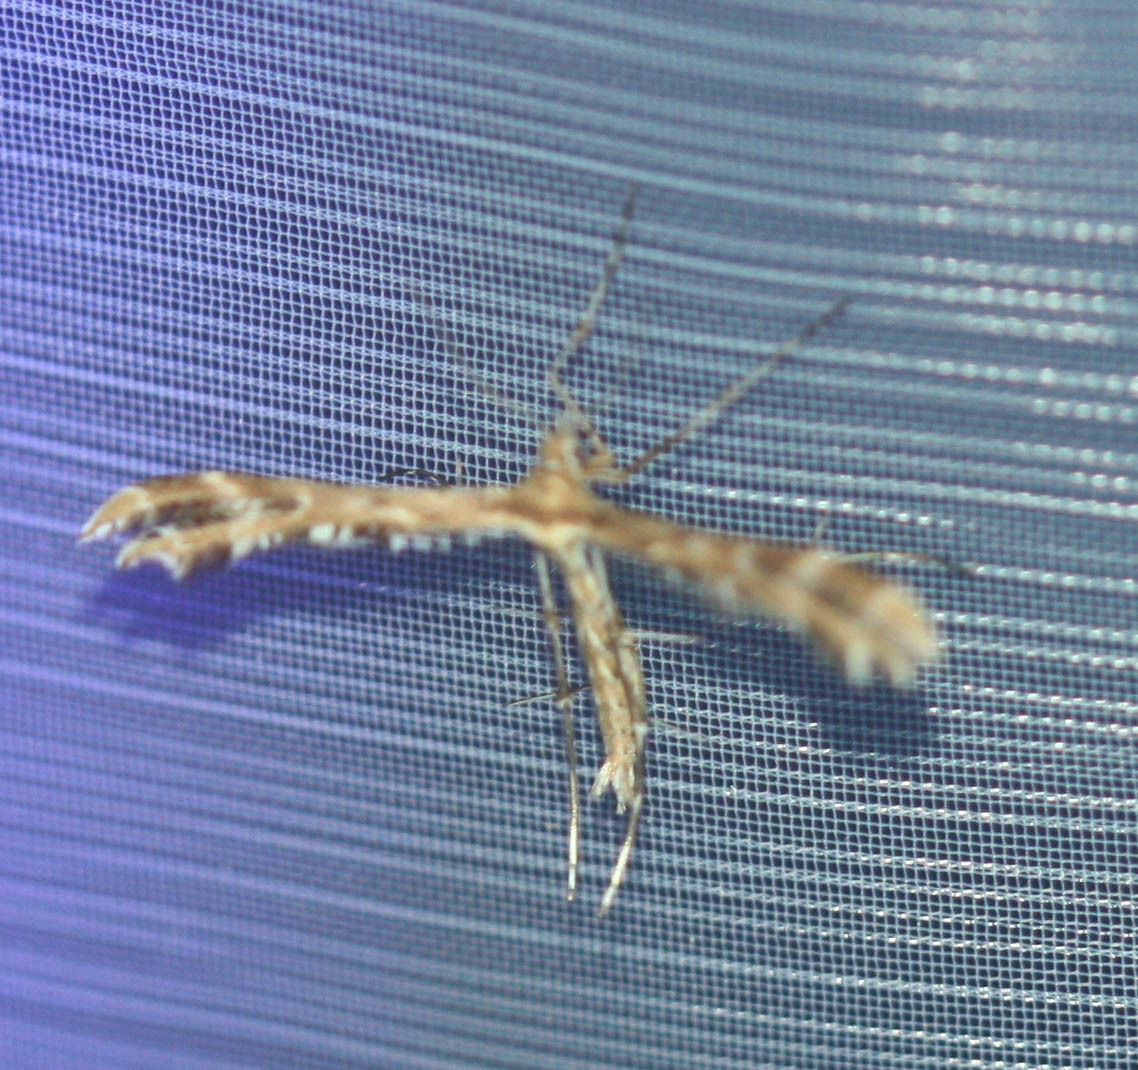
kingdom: Animalia
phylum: Arthropoda
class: Insecta
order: Lepidoptera
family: Pterophoridae
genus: Crombrugghia
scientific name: Crombrugghia distans
